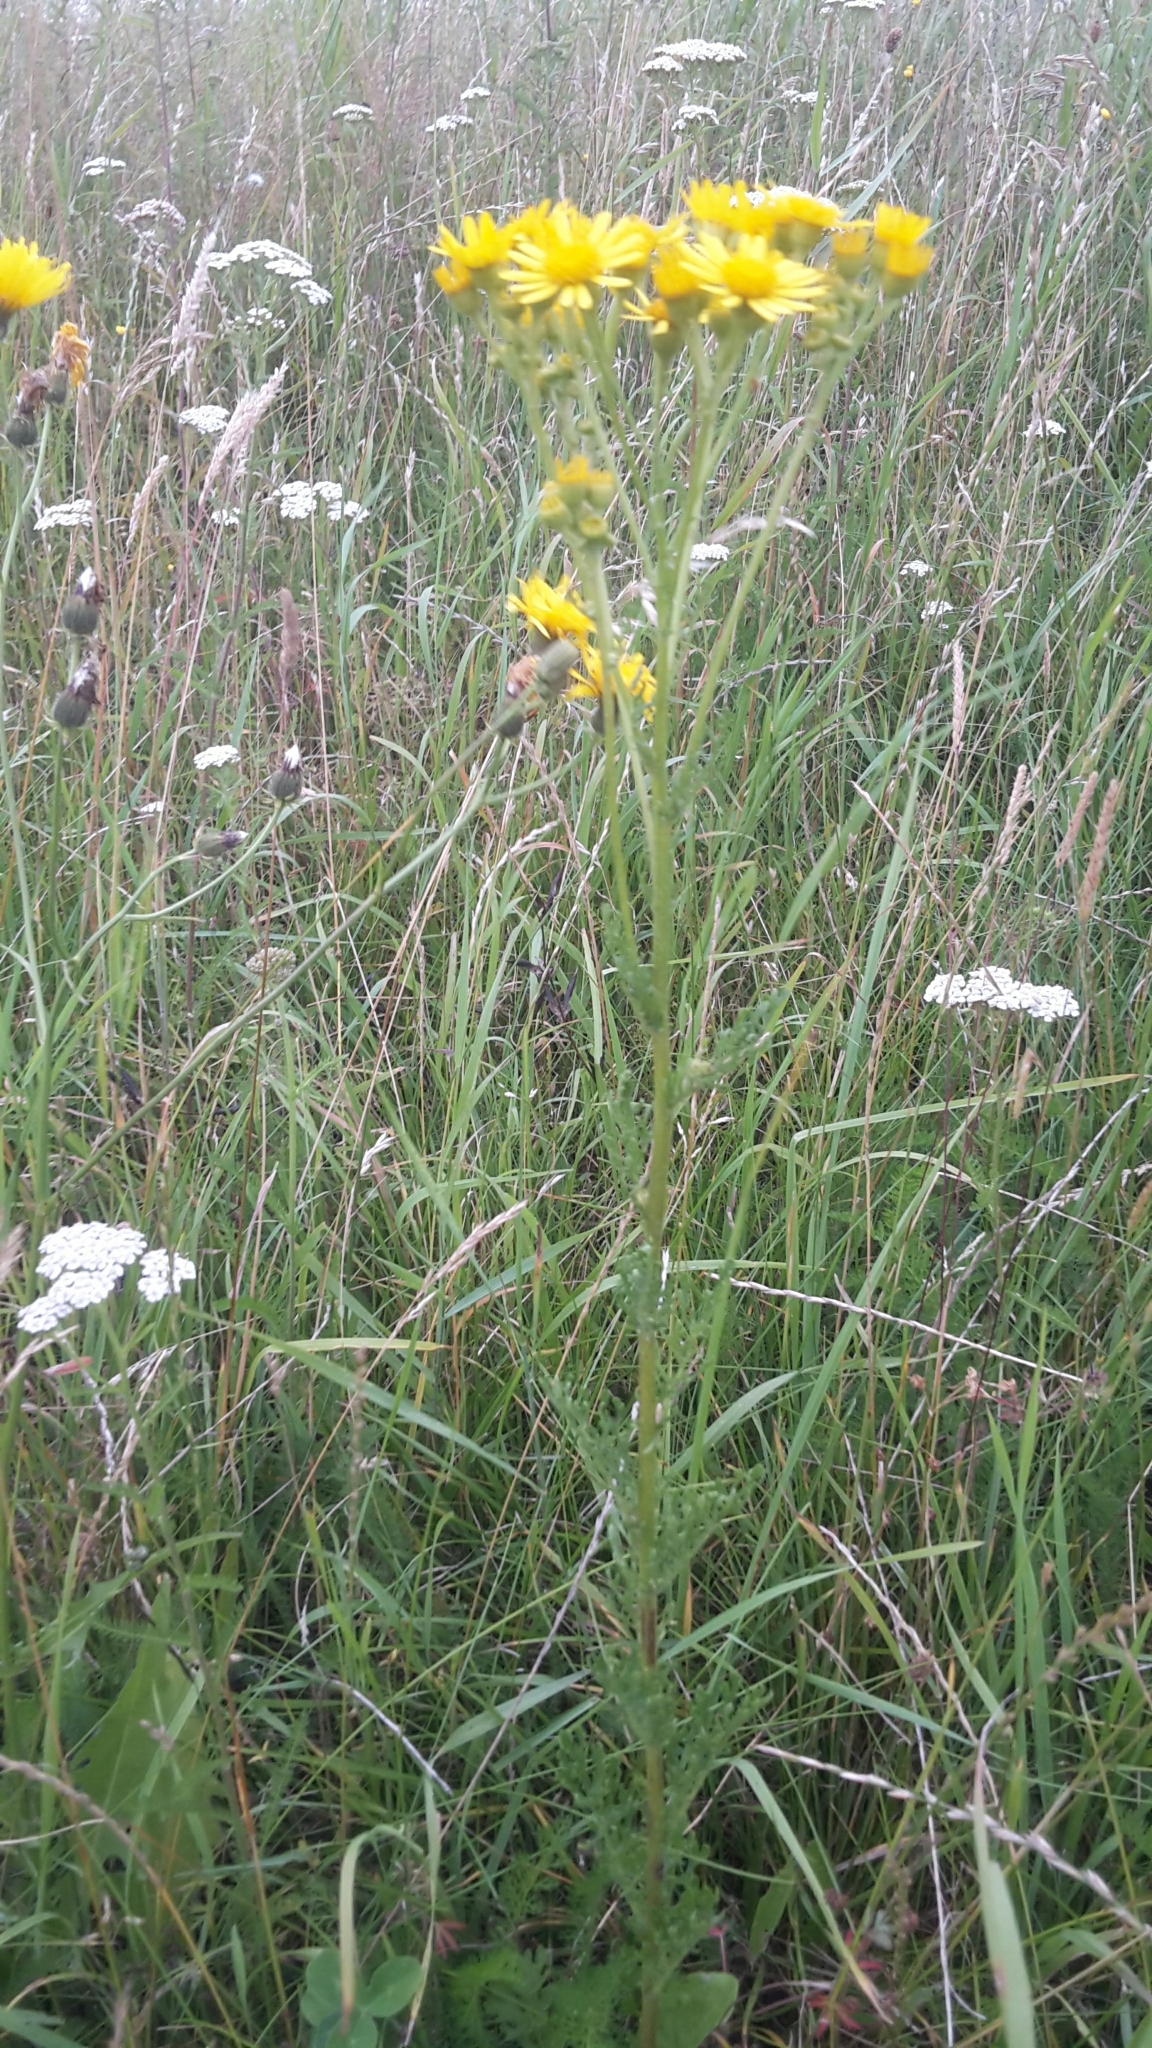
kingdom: Plantae
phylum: Tracheophyta
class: Magnoliopsida
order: Asterales
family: Asteraceae
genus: Jacobaea
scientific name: Jacobaea vulgaris
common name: Stinking willie
